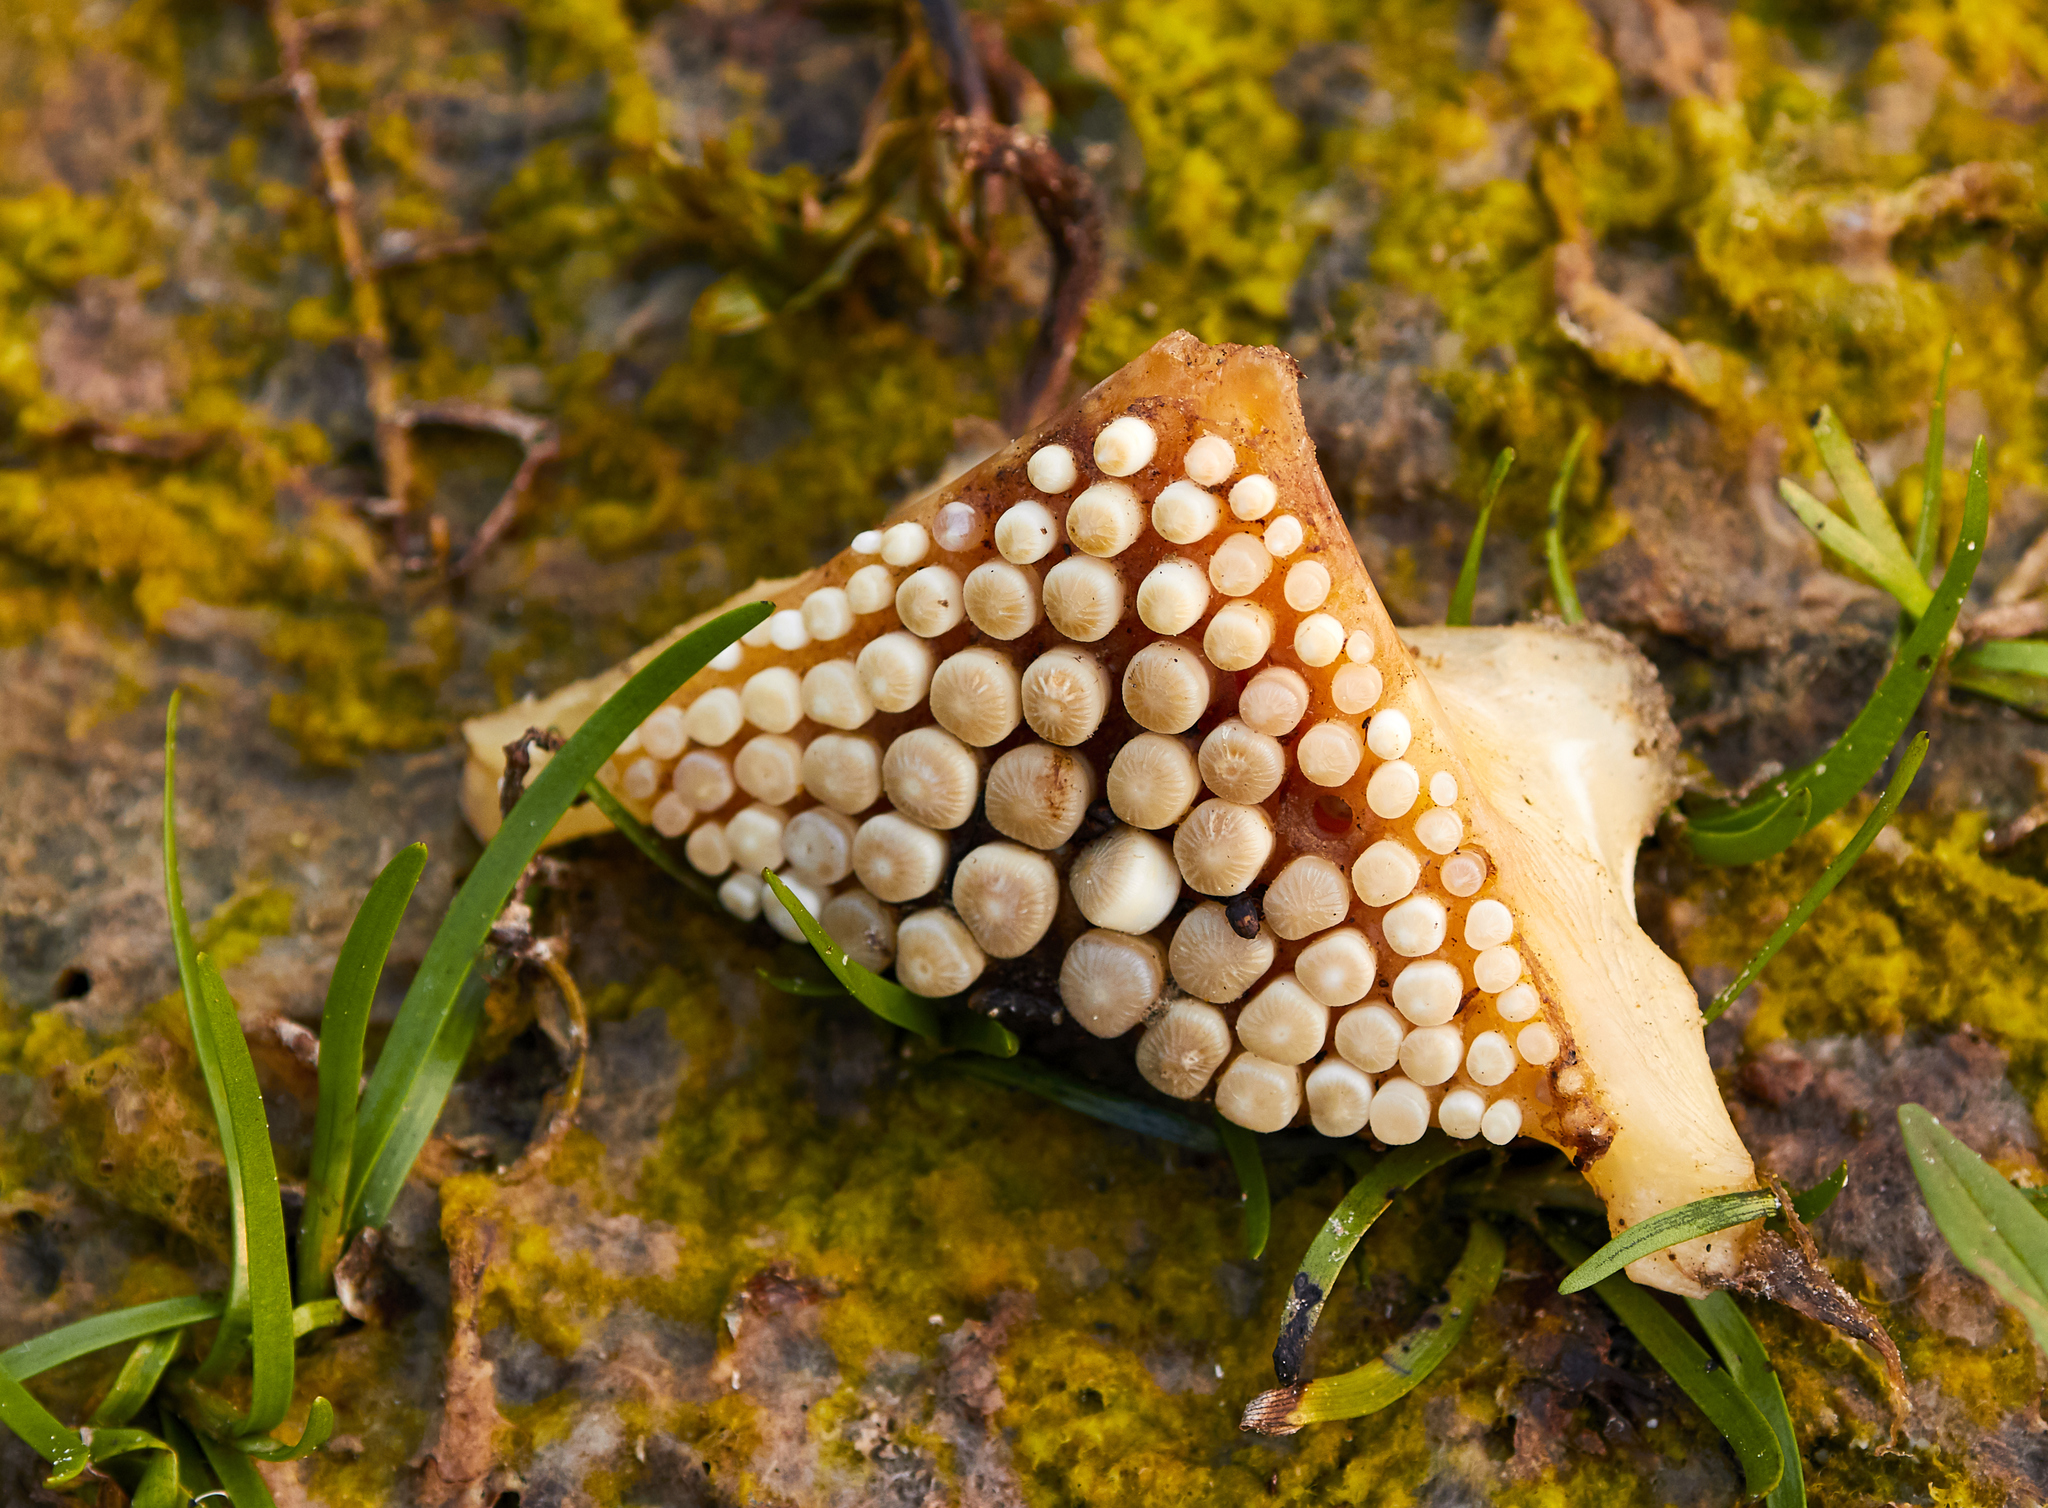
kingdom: Animalia
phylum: Chordata
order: Perciformes
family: Sciaenidae
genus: Aplodinotus
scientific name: Aplodinotus grunniens
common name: Freshwater drum
